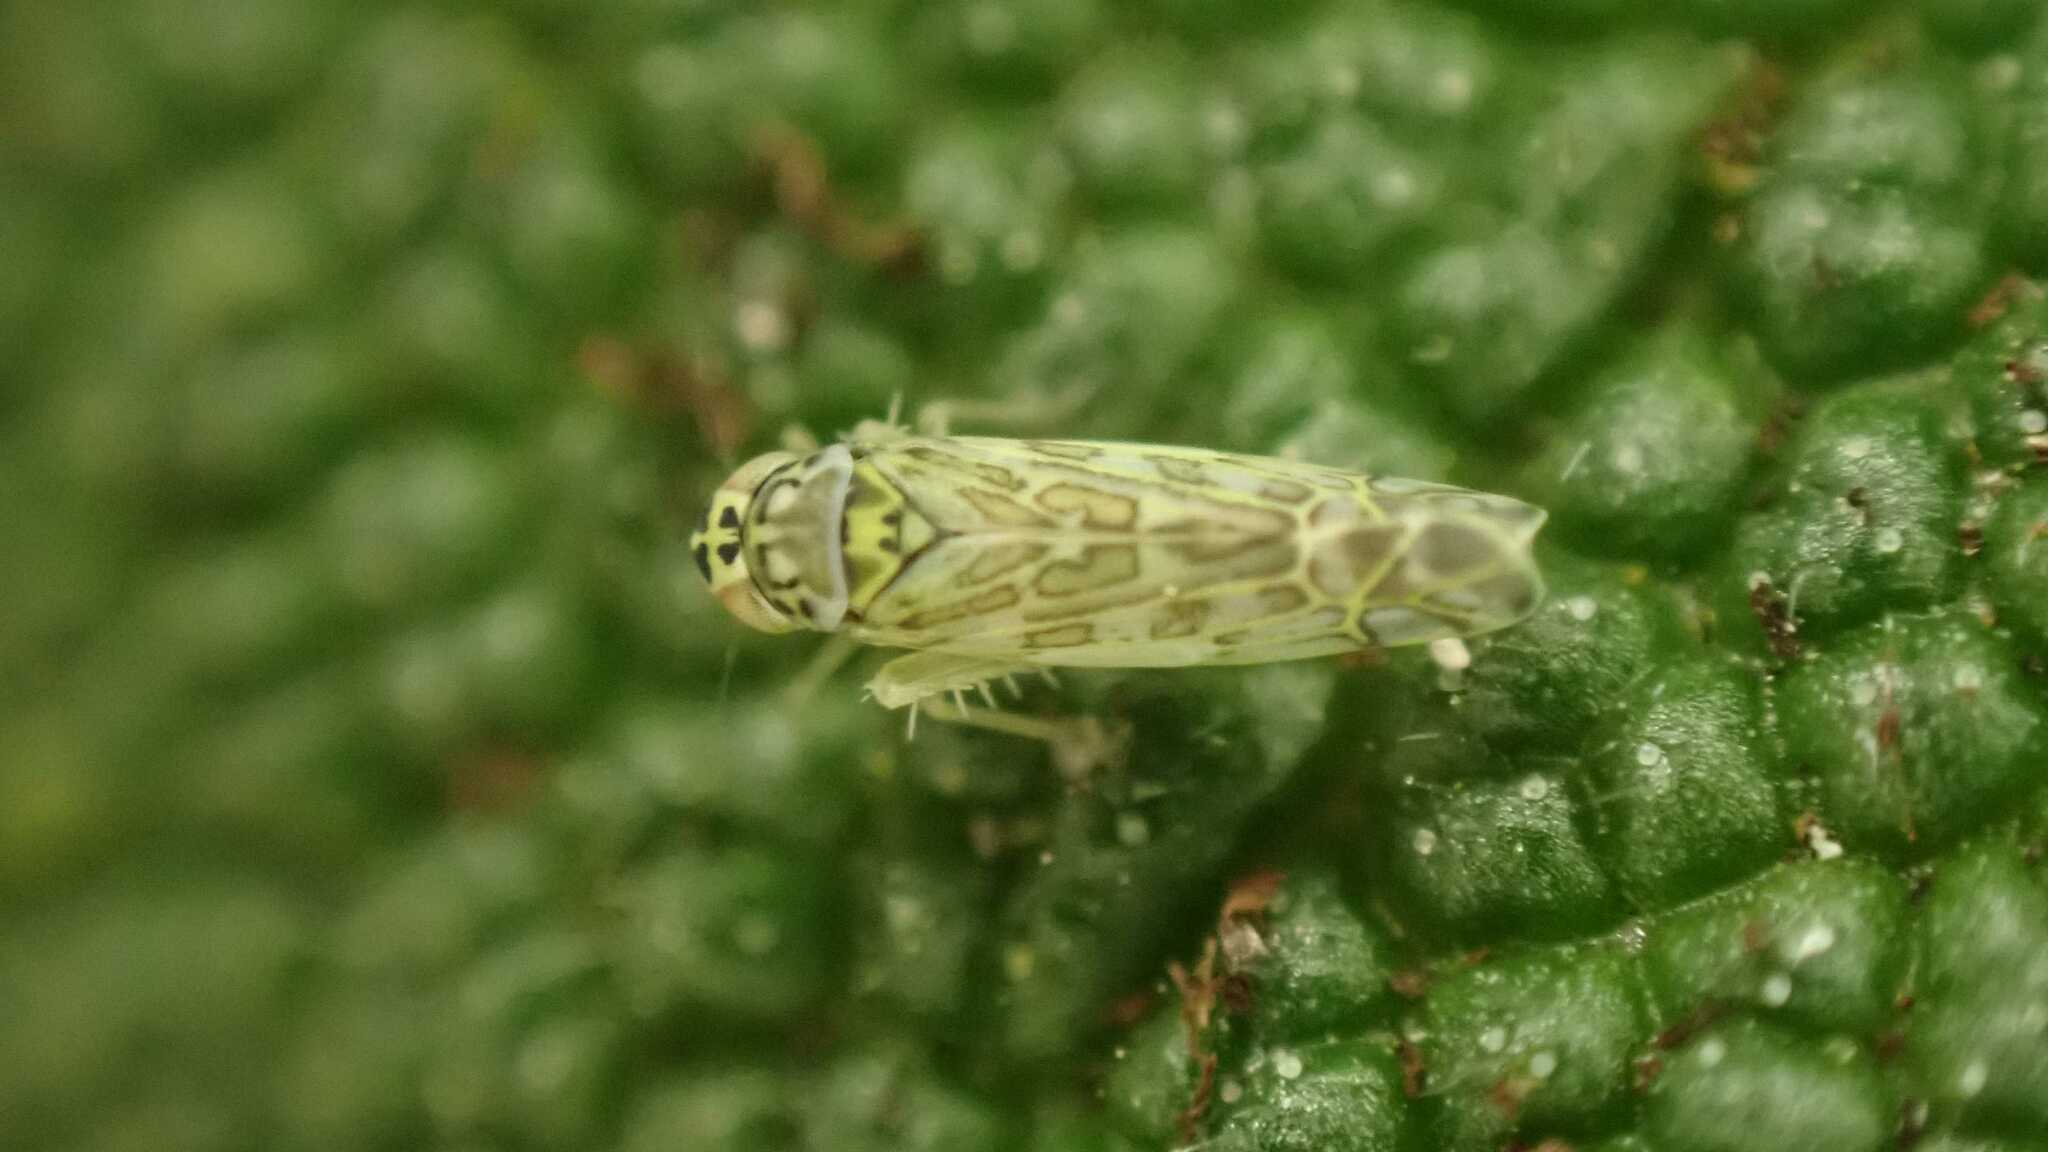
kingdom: Animalia
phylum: Arthropoda
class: Insecta
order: Hemiptera
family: Cicadellidae
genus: Eupteryx
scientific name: Eupteryx decemnotata
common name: Ligurian leafhopper
